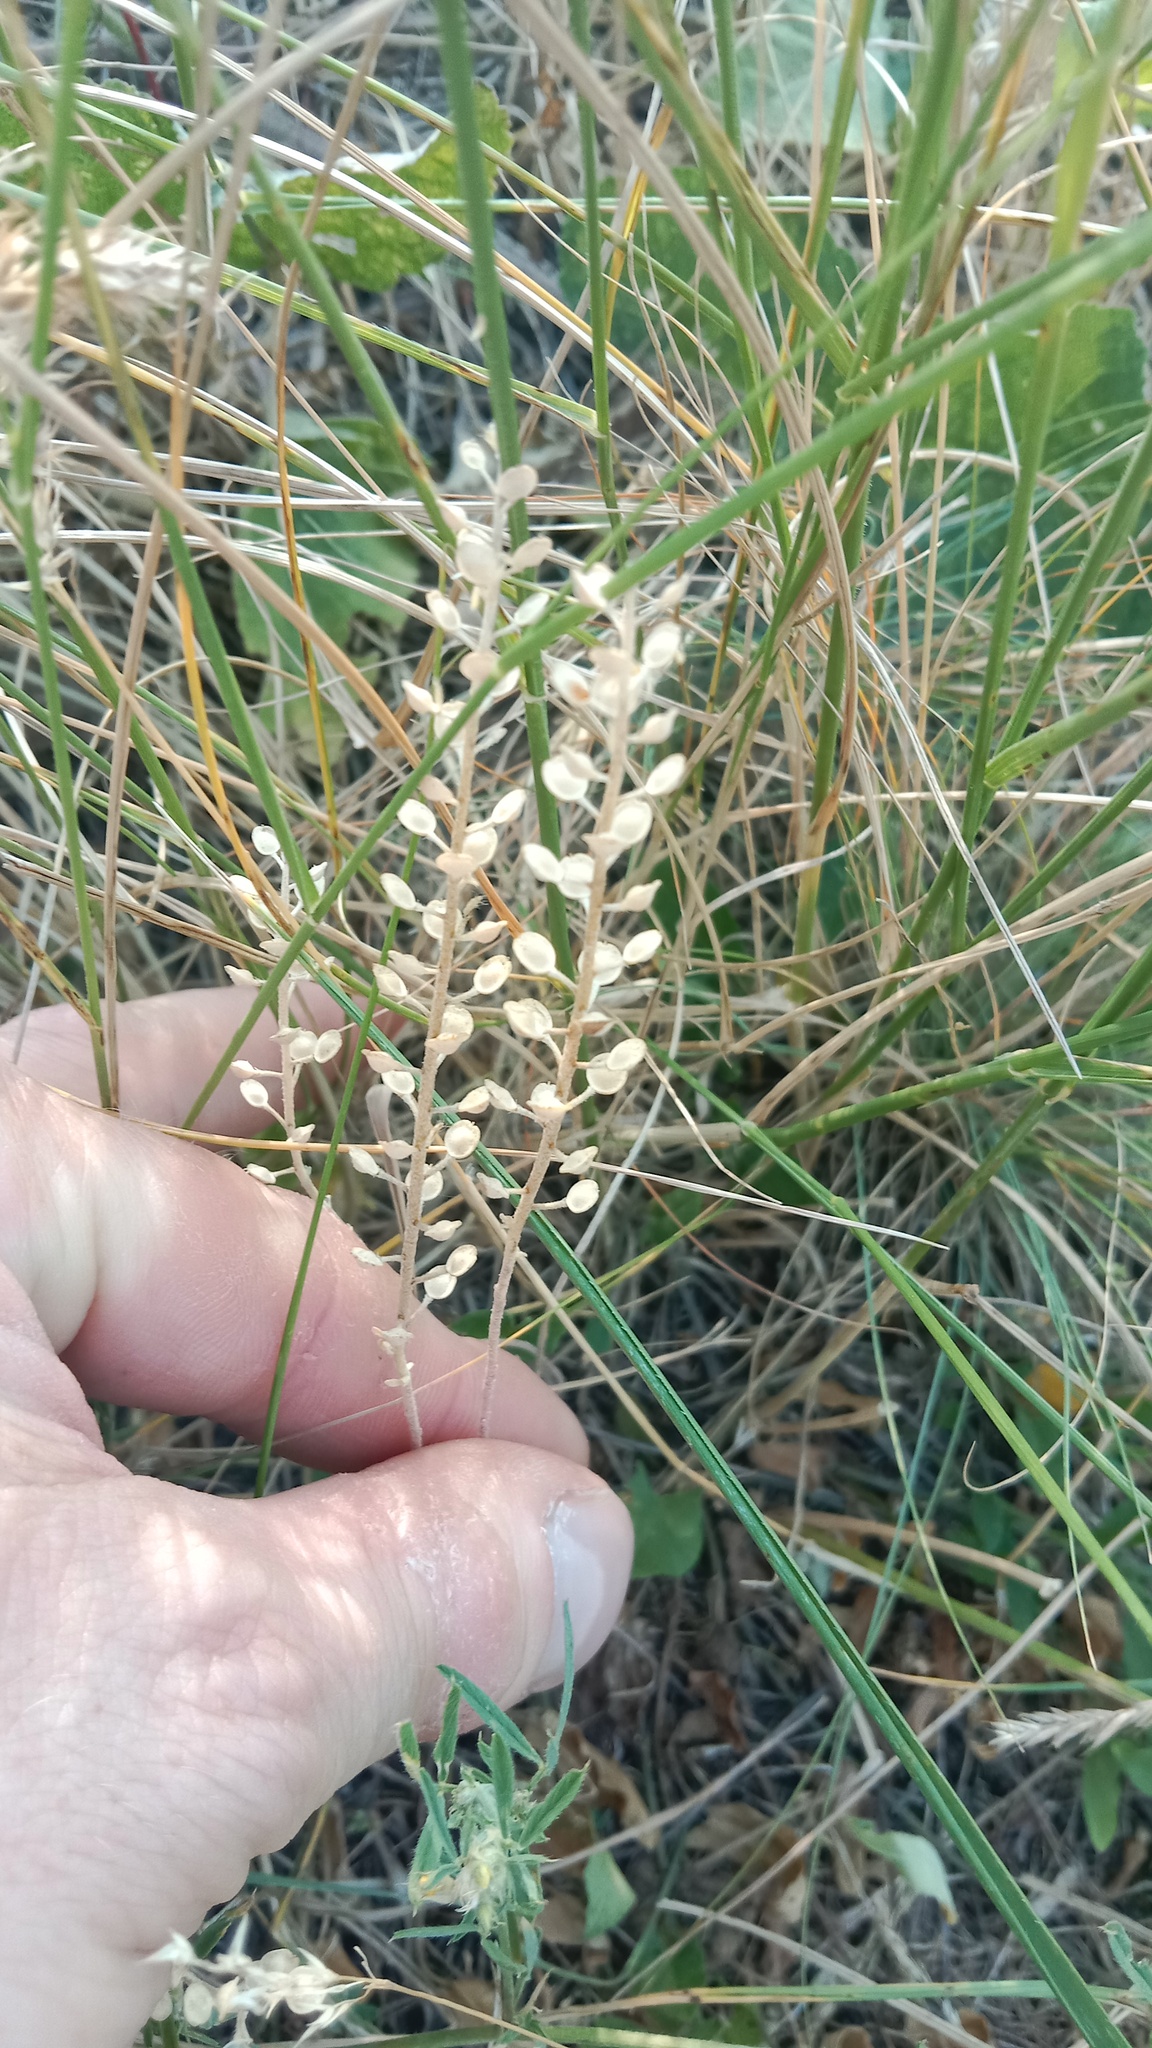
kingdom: Plantae
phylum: Tracheophyta
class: Magnoliopsida
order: Brassicales
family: Brassicaceae
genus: Alyssum
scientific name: Alyssum alyssoides
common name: Small alison
